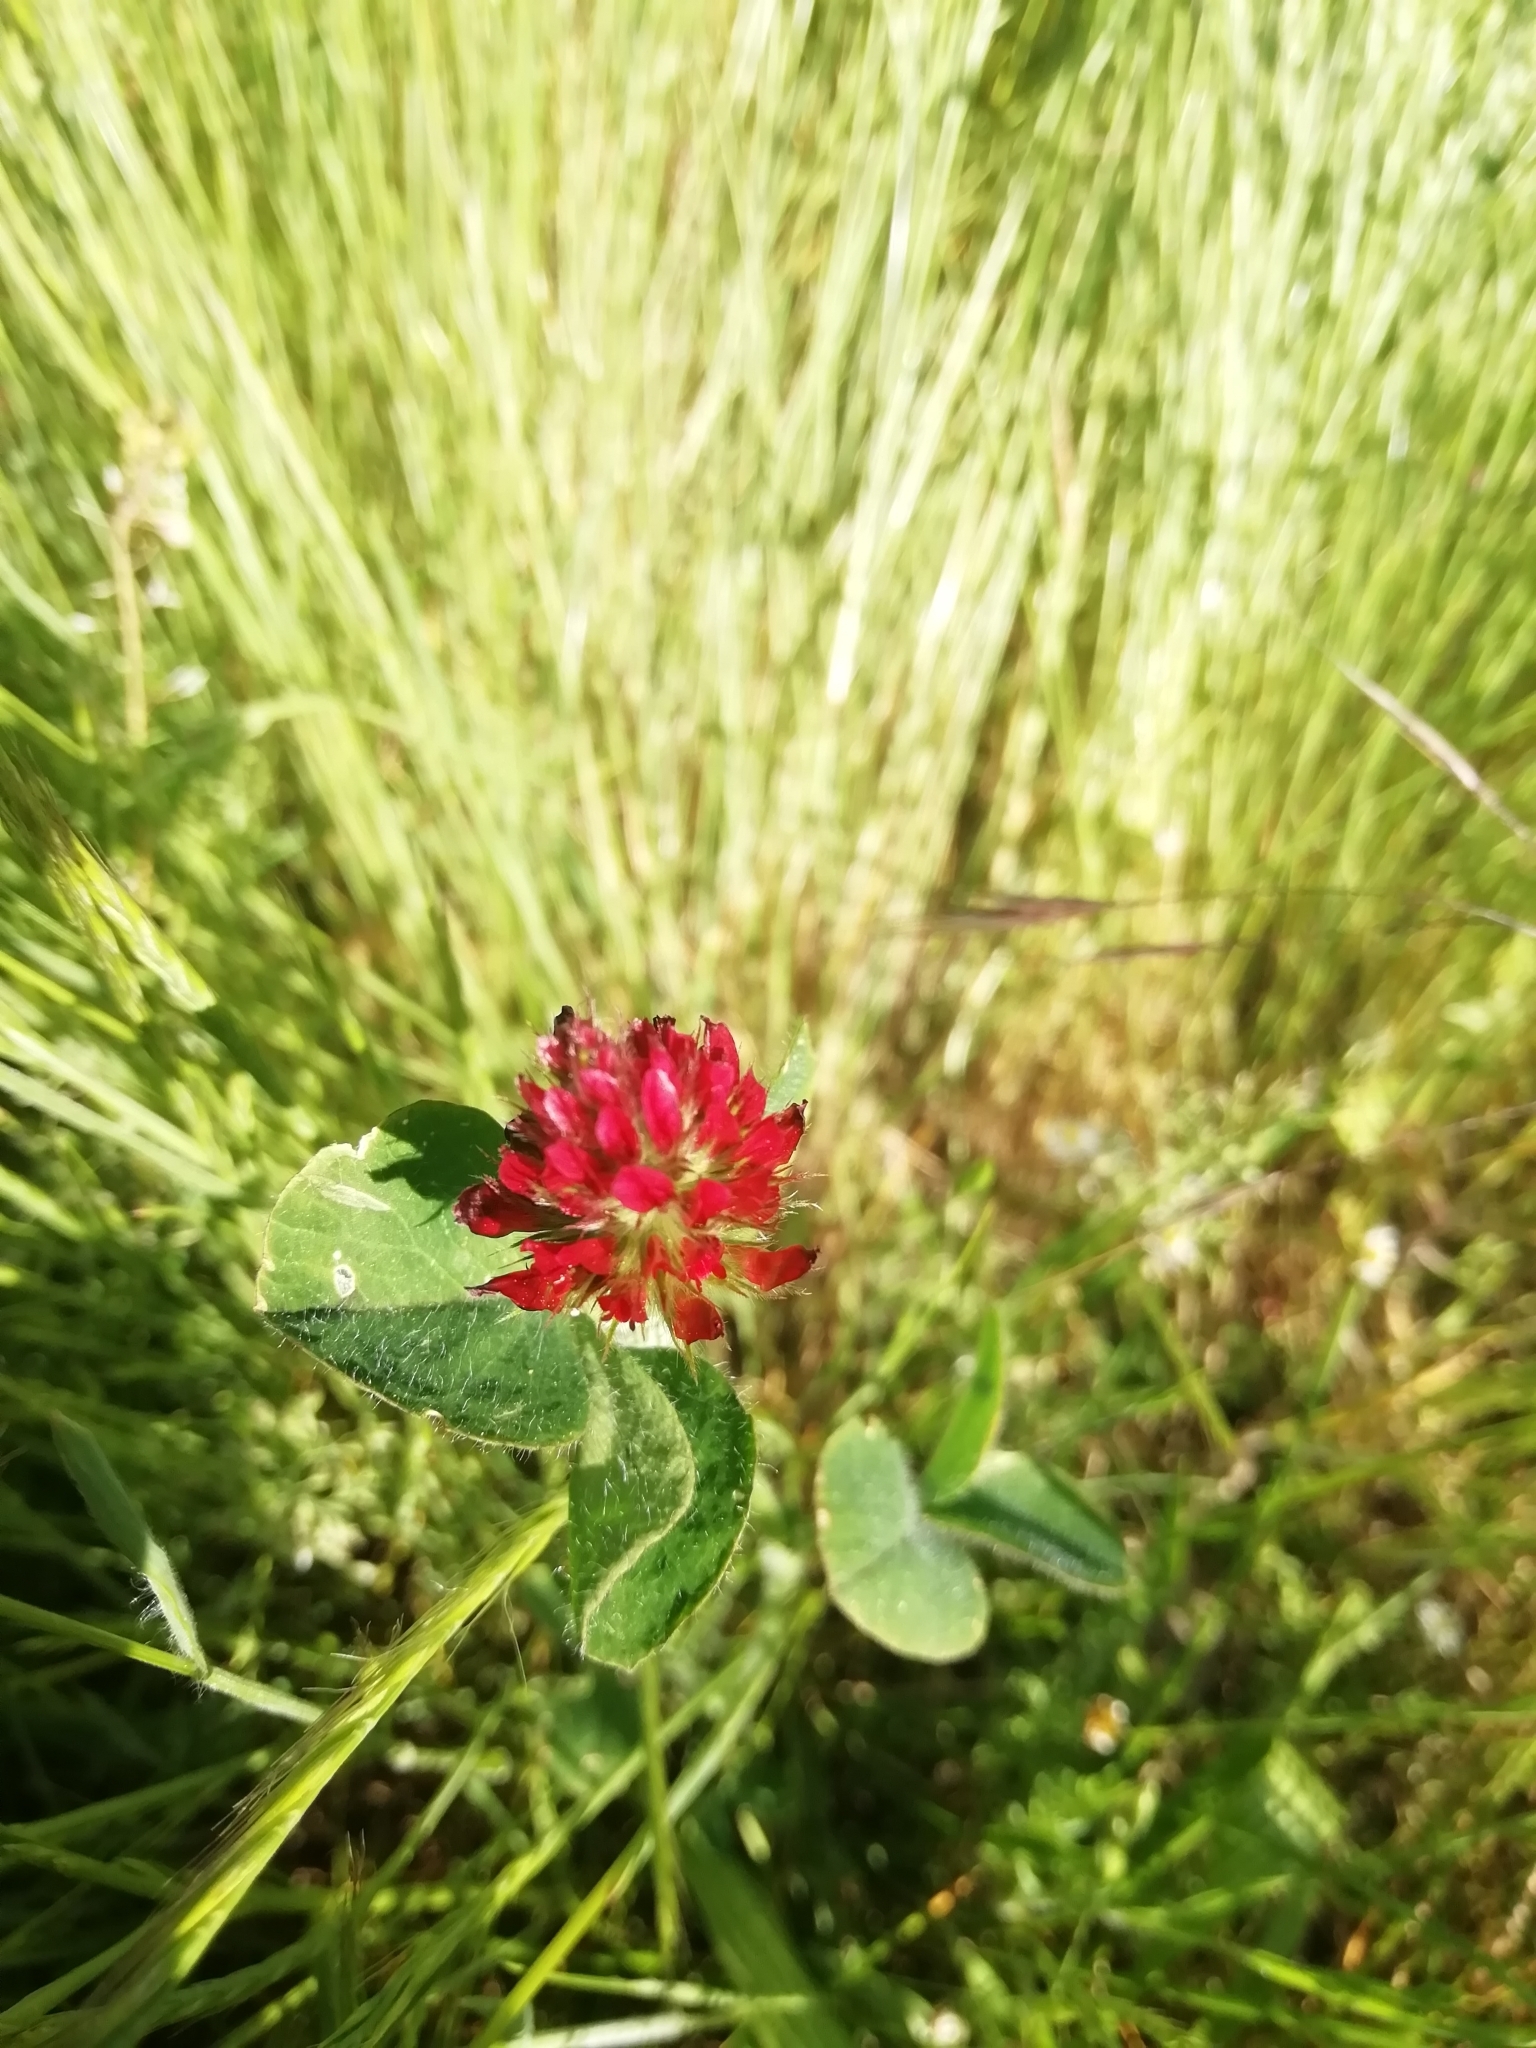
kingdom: Plantae
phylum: Tracheophyta
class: Magnoliopsida
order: Fabales
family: Fabaceae
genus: Trifolium
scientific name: Trifolium incarnatum
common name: Crimson clover
